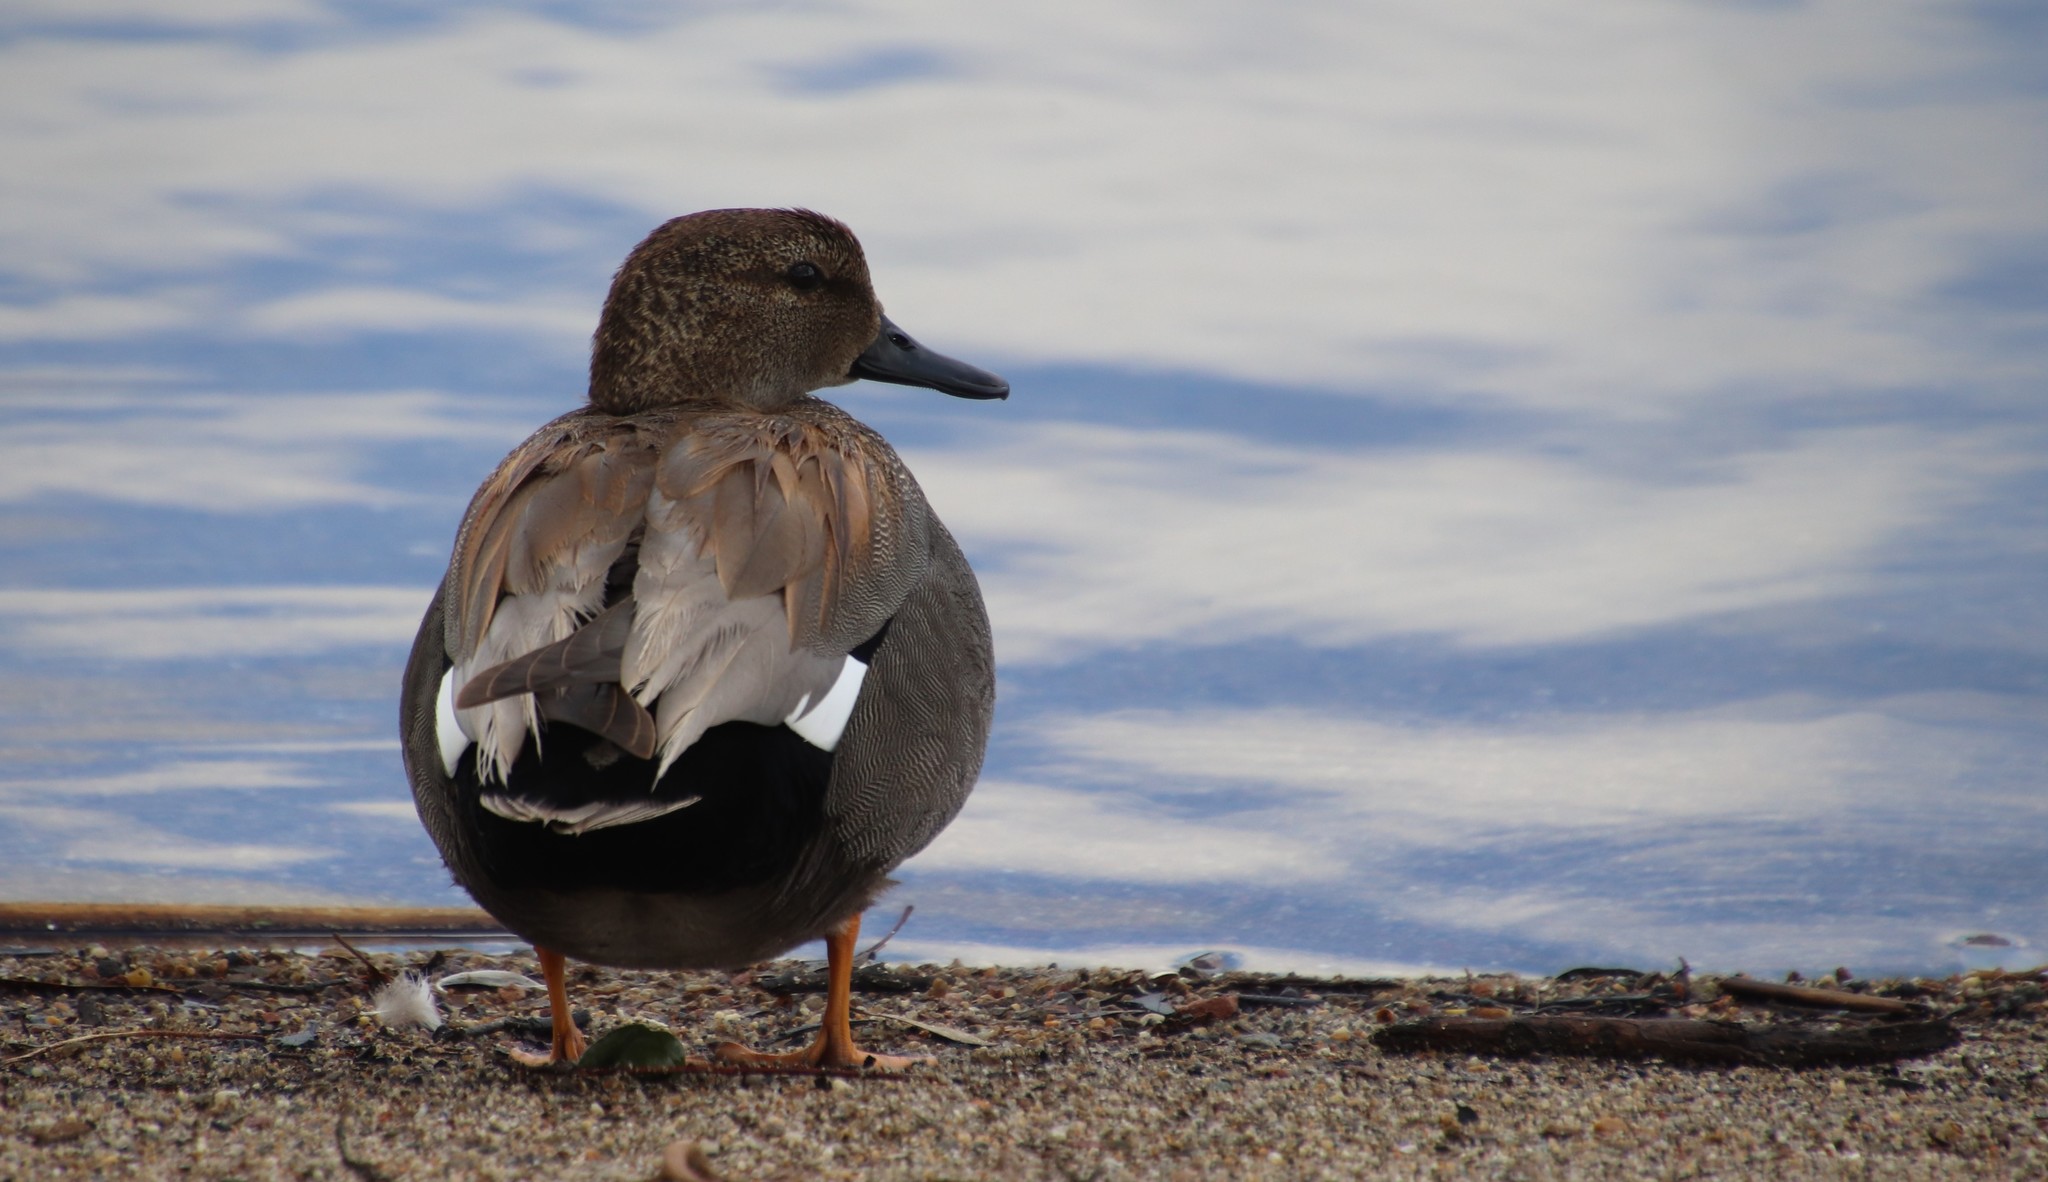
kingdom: Animalia
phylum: Chordata
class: Aves
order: Anseriformes
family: Anatidae
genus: Mareca
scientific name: Mareca strepera
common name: Gadwall
